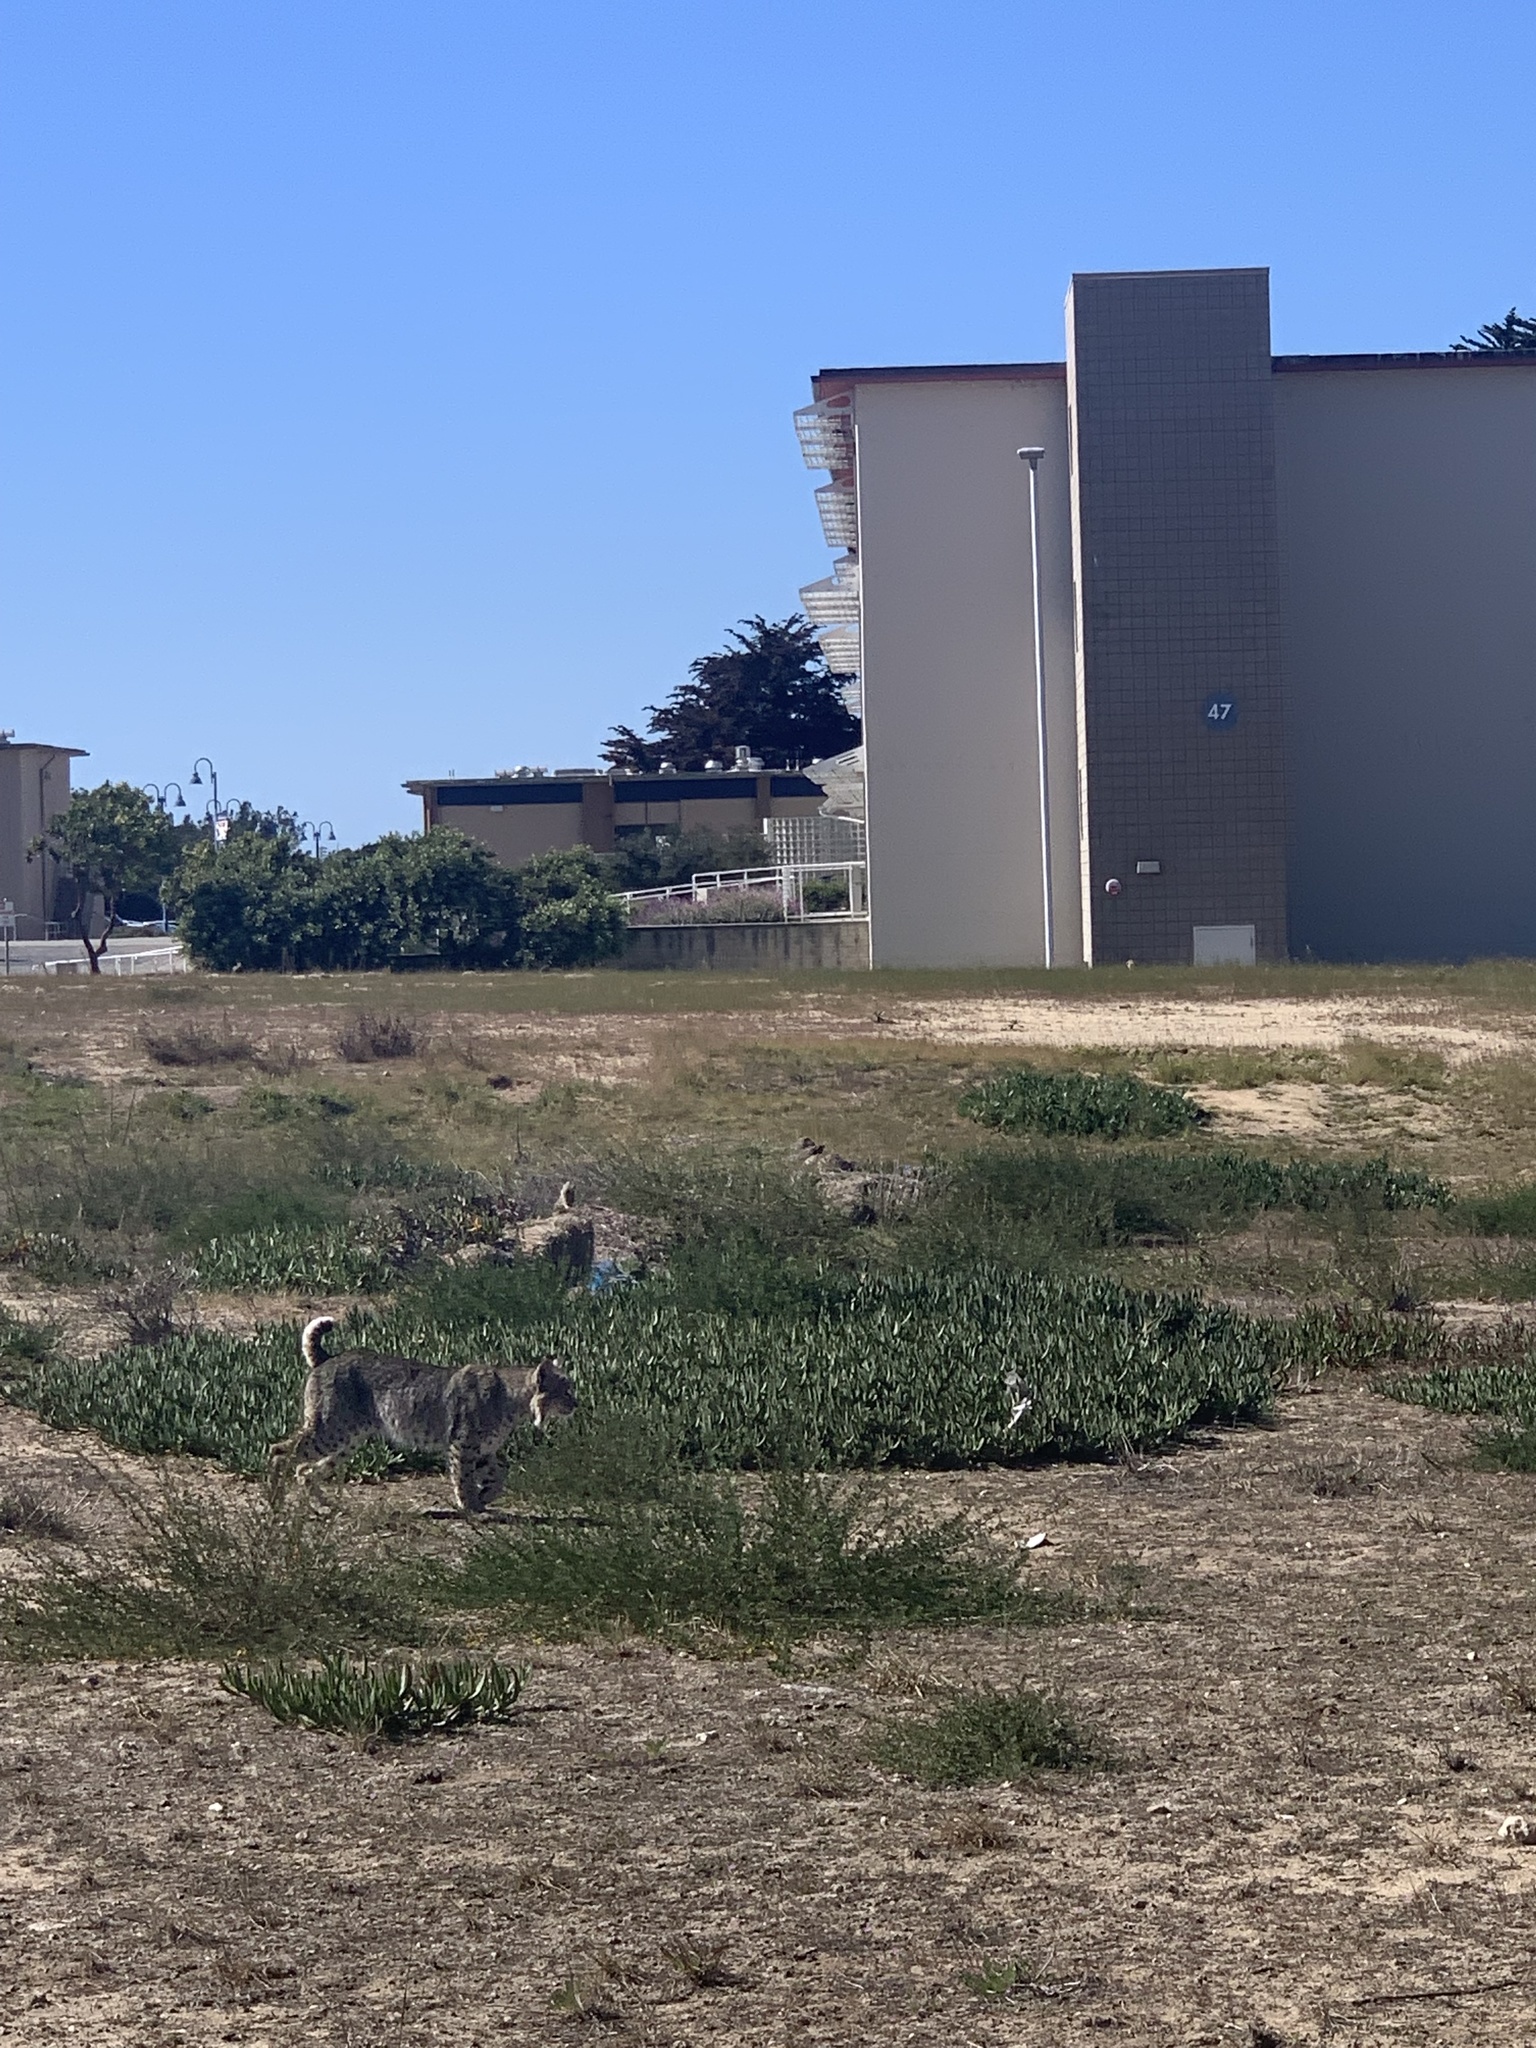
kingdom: Animalia
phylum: Chordata
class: Mammalia
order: Carnivora
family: Felidae
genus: Lynx
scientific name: Lynx rufus
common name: Bobcat
